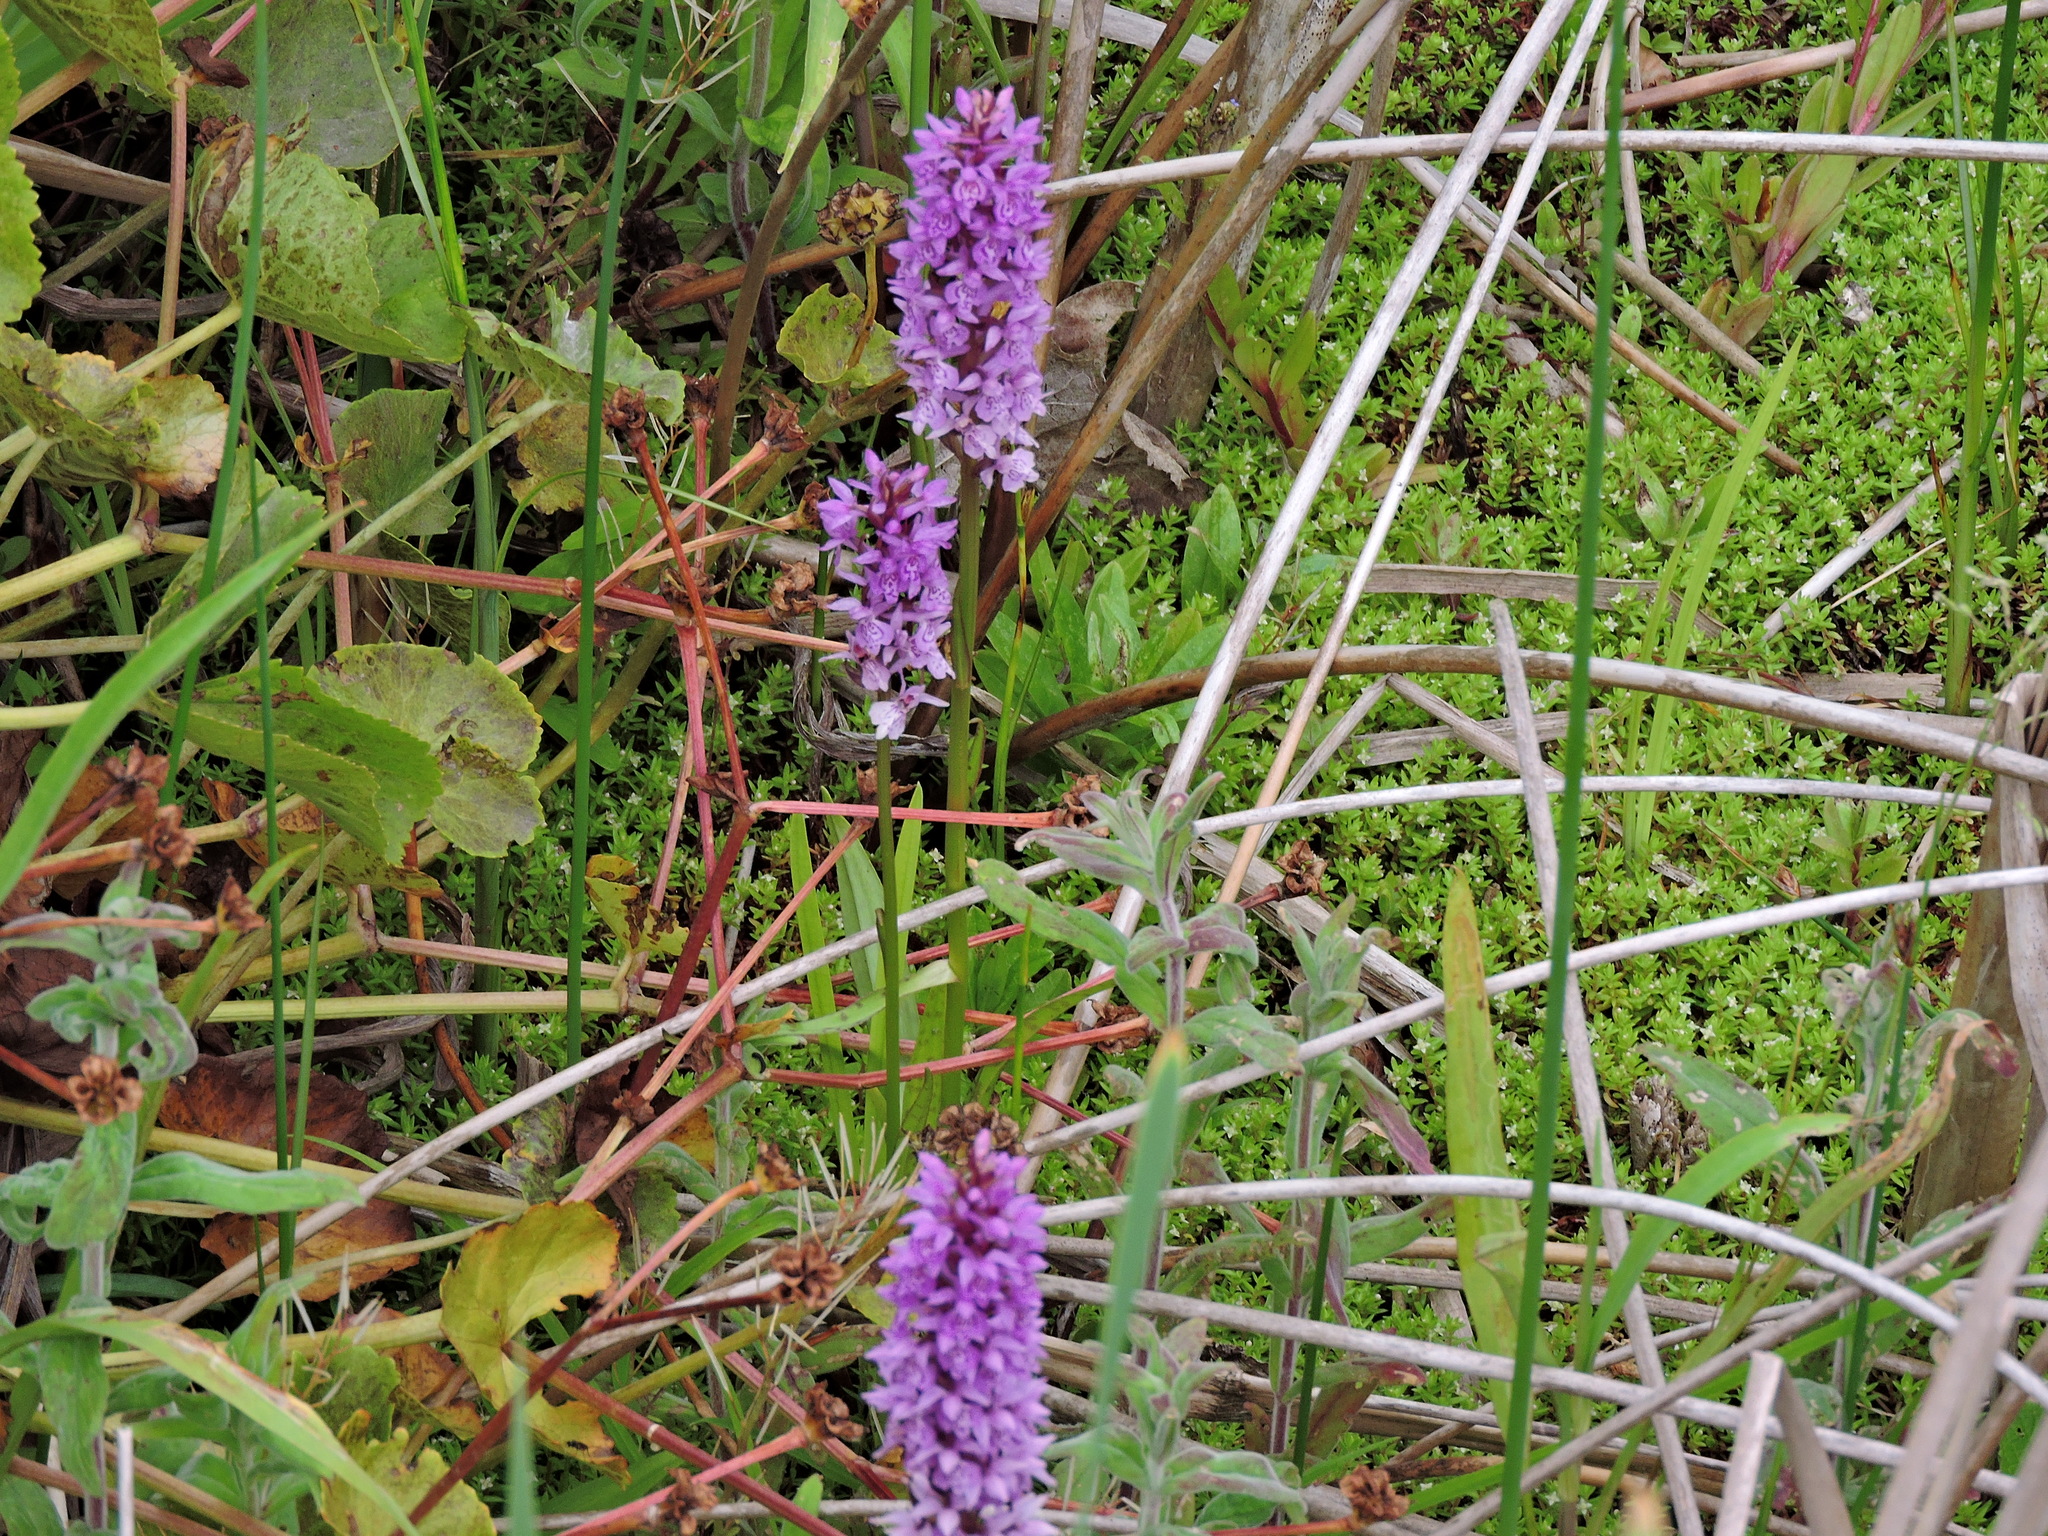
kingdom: Plantae
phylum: Tracheophyta
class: Liliopsida
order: Asparagales
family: Orchidaceae
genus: Dactylorhiza
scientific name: Dactylorhiza maculata
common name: Heath spotted-orchid
